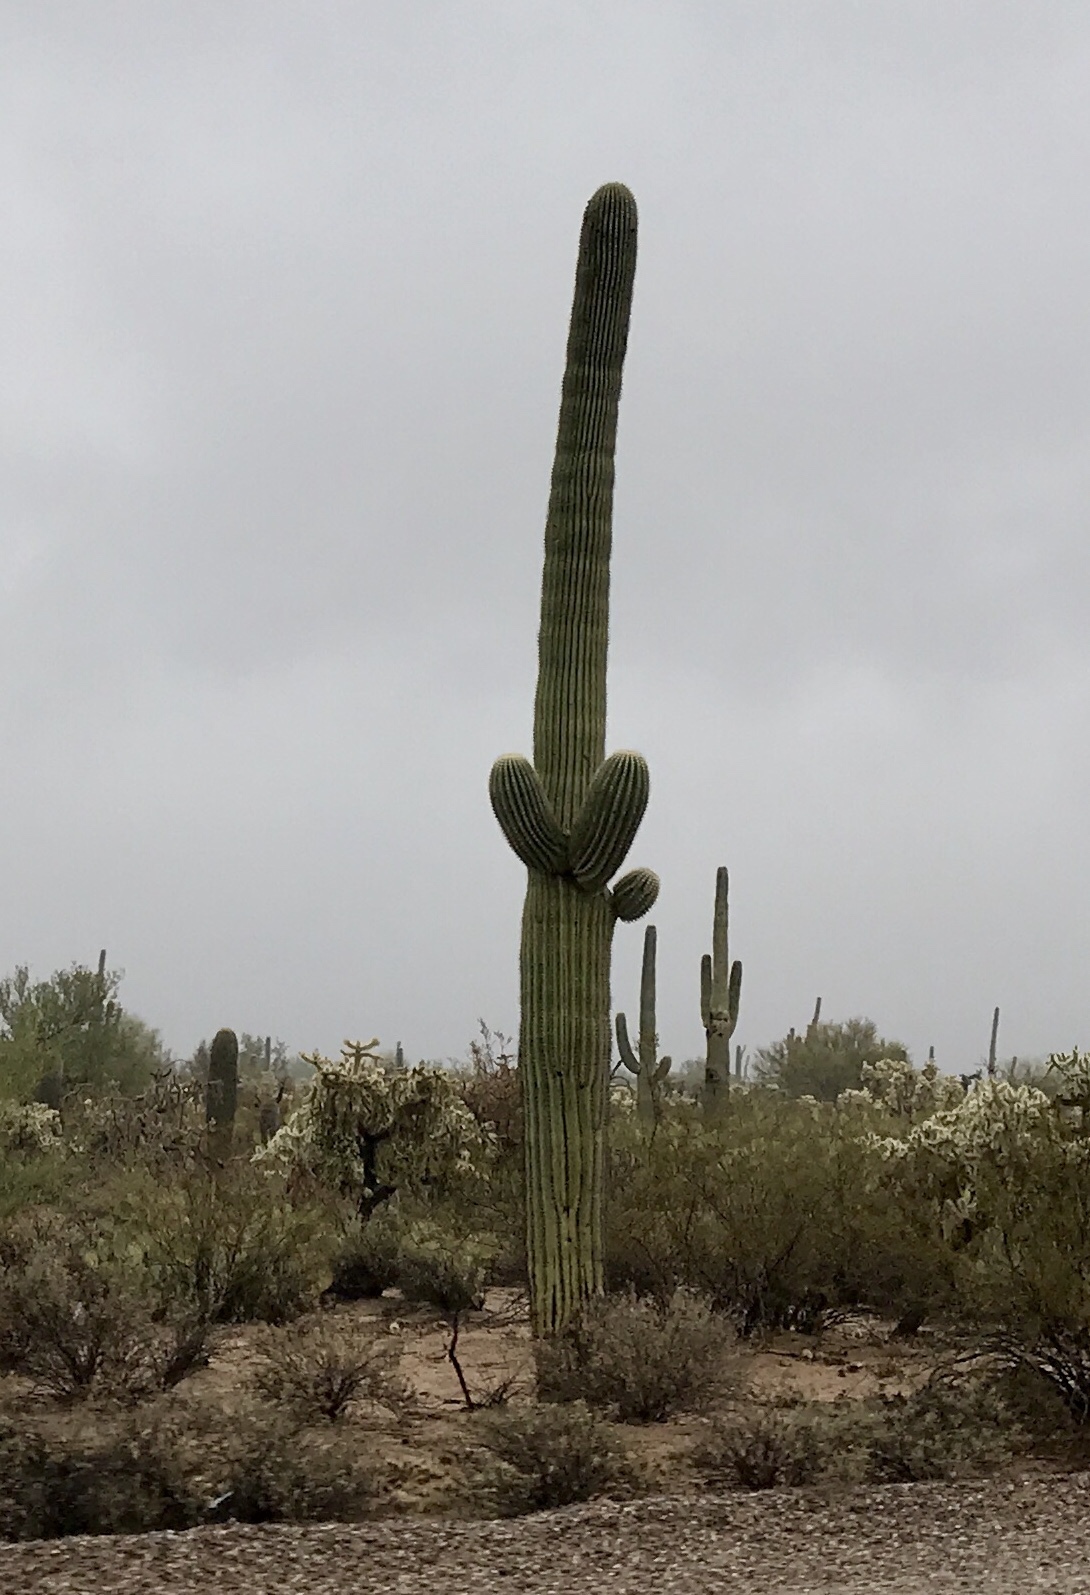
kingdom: Plantae
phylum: Tracheophyta
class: Magnoliopsida
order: Caryophyllales
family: Cactaceae
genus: Carnegiea
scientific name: Carnegiea gigantea
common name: Saguaro
